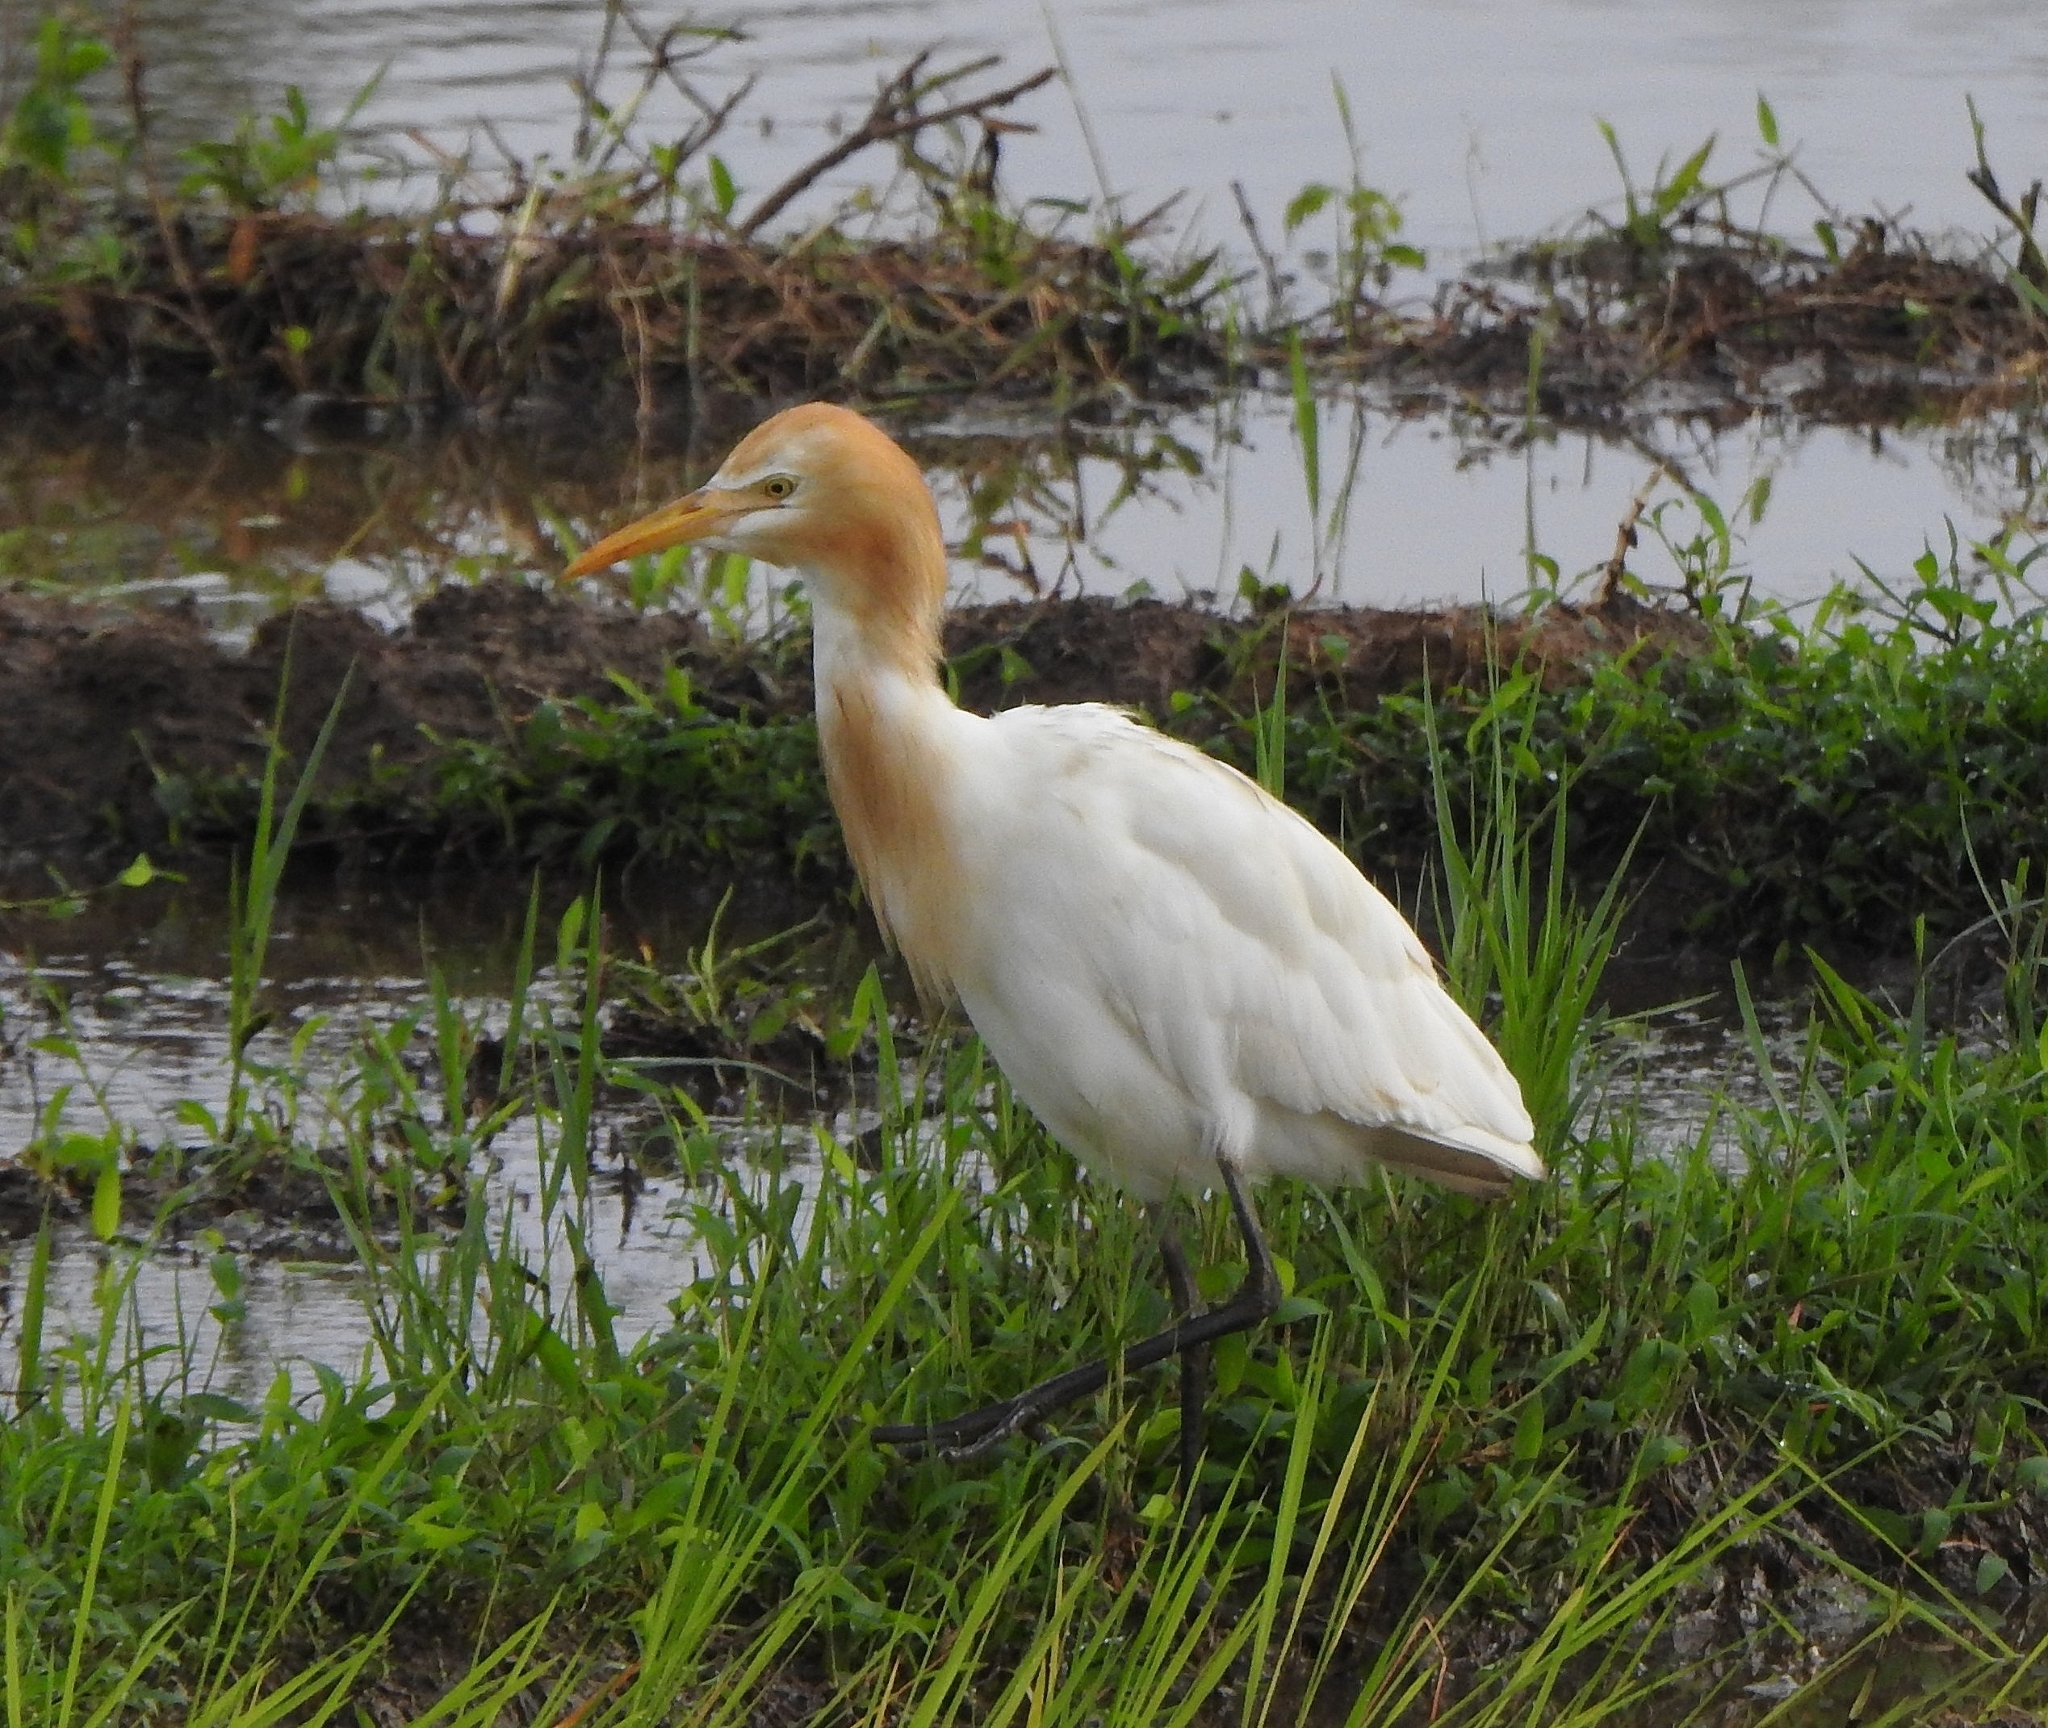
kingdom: Animalia
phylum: Chordata
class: Aves
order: Pelecaniformes
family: Ardeidae
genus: Bubulcus
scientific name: Bubulcus coromandus
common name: Eastern cattle egret
